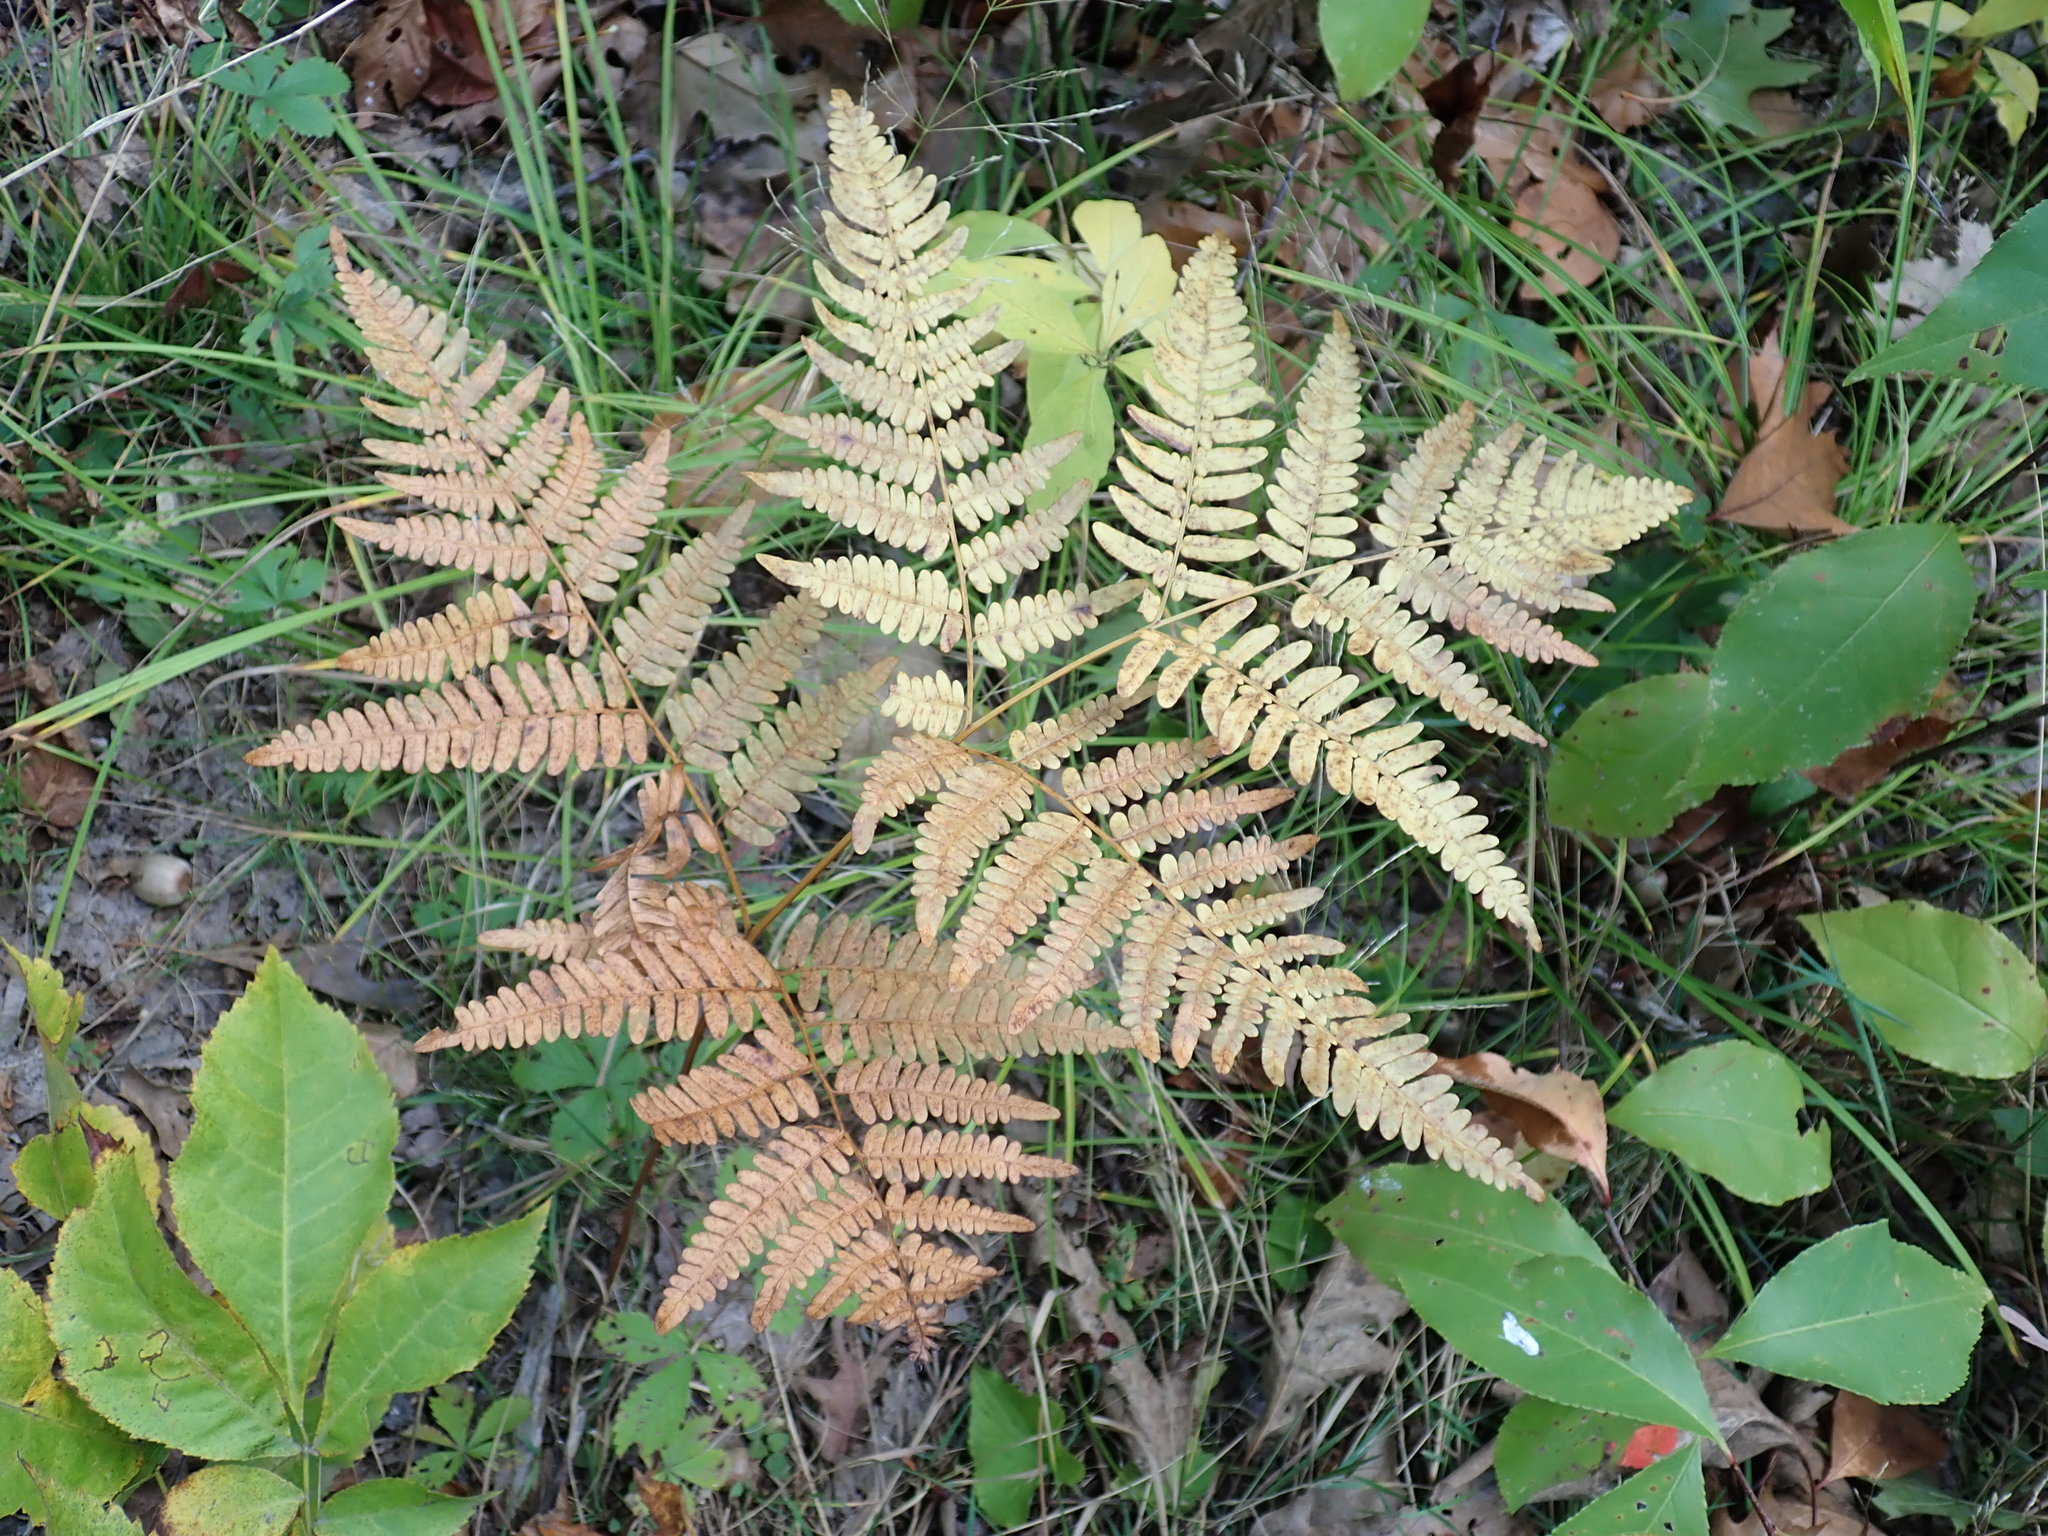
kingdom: Plantae
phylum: Tracheophyta
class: Polypodiopsida
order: Polypodiales
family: Dennstaedtiaceae
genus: Pteridium
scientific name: Pteridium aquilinum
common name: Bracken
